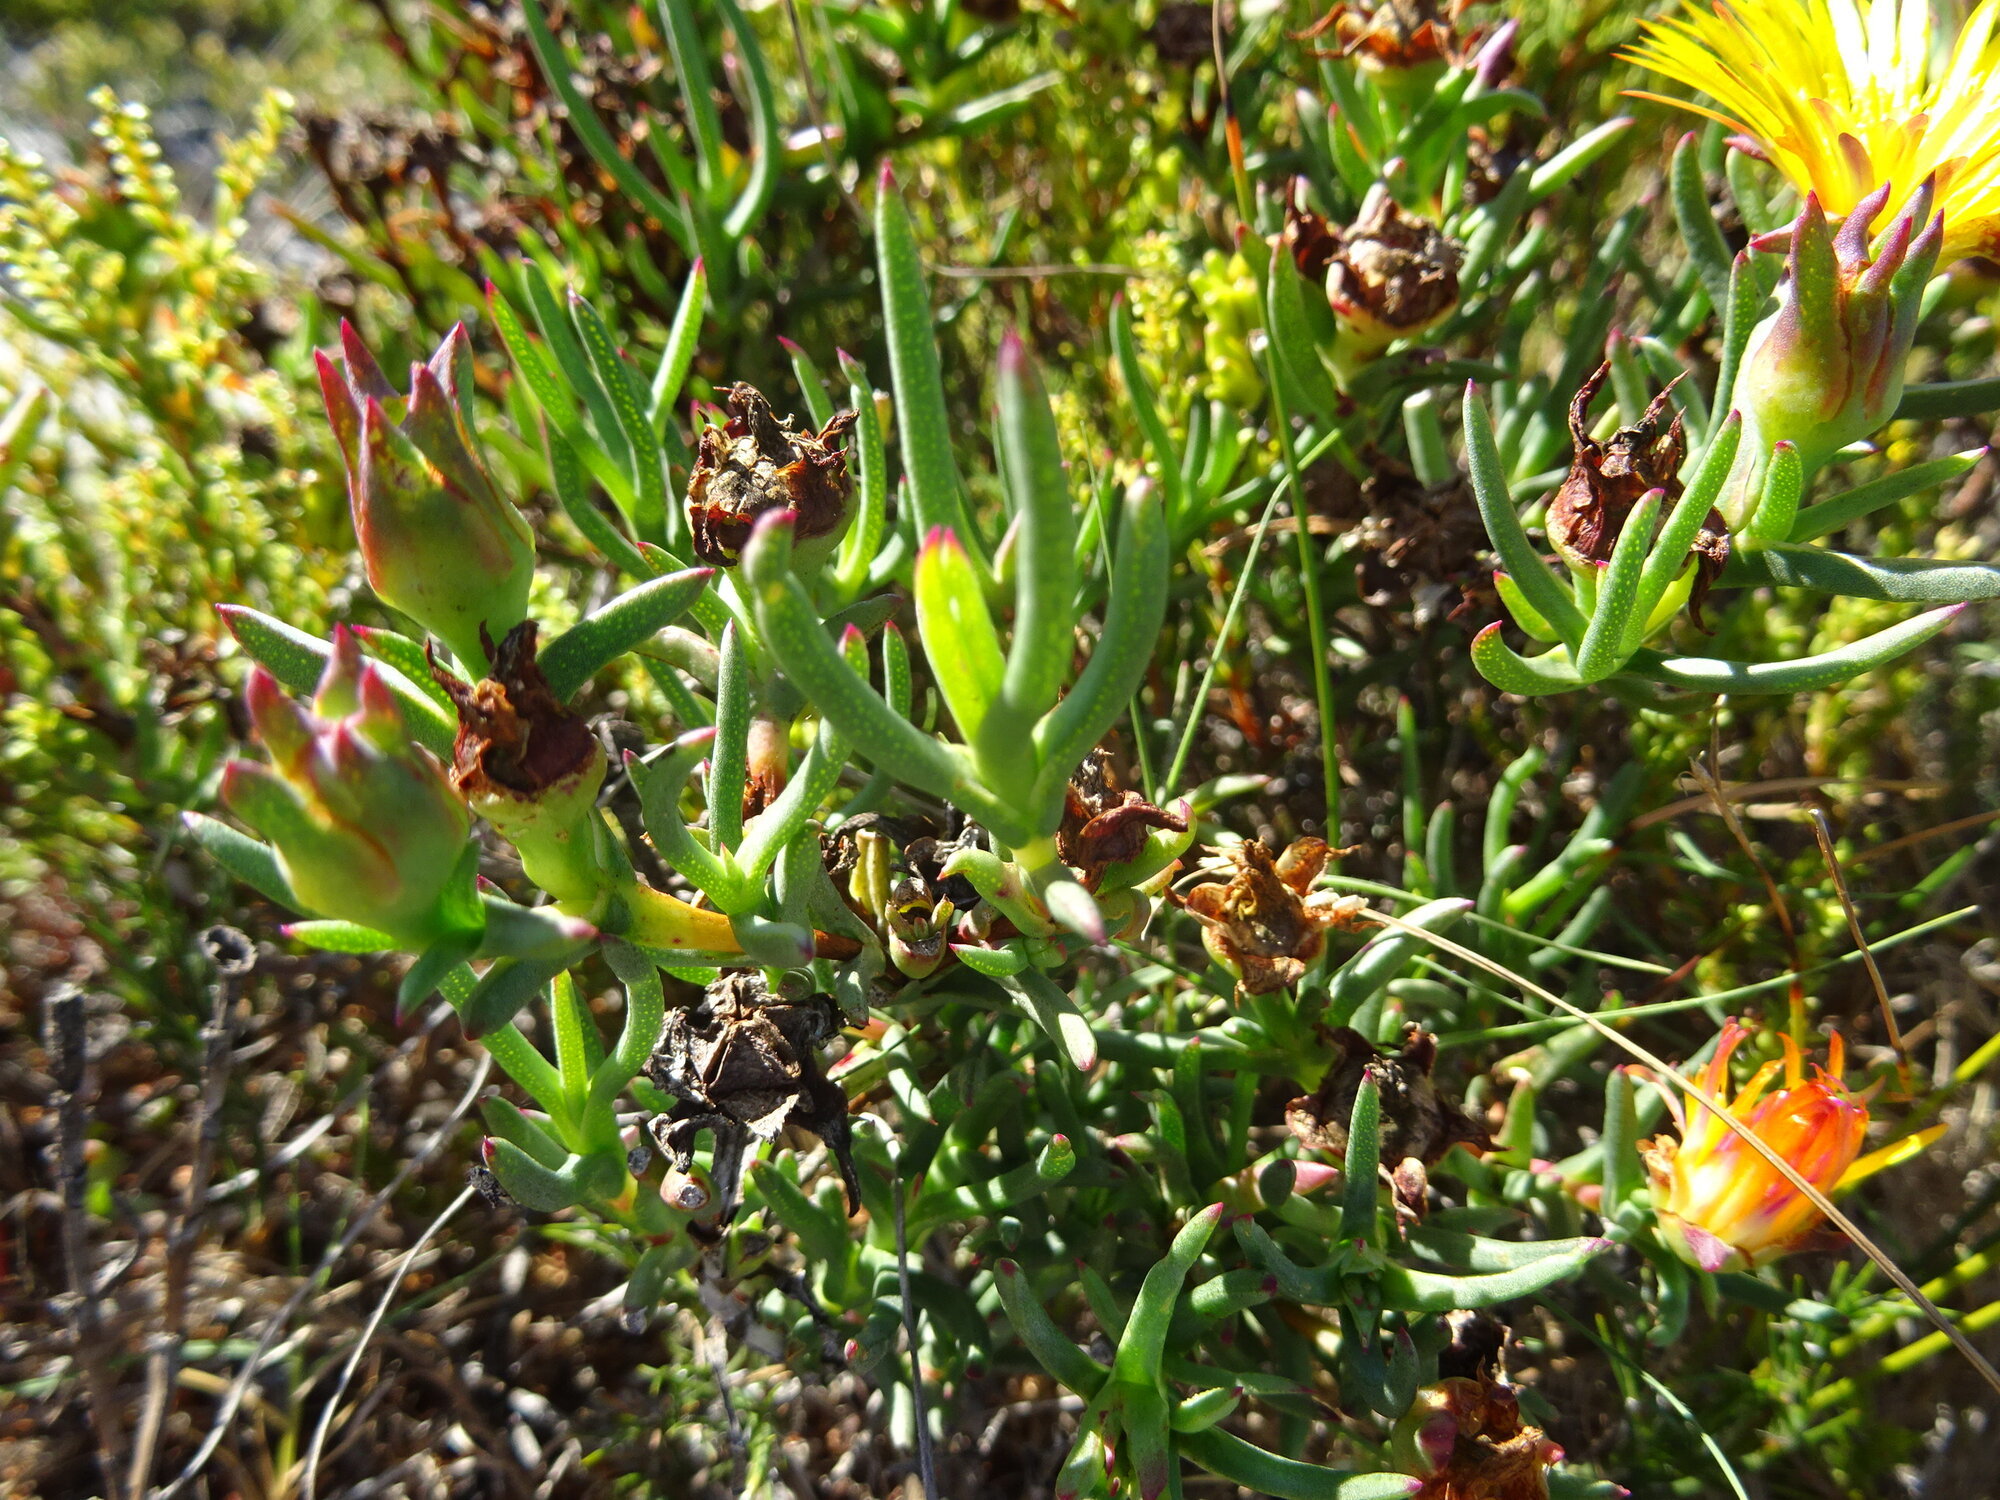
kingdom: Plantae
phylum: Tracheophyta
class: Magnoliopsida
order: Caryophyllales
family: Aizoaceae
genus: Lampranthus
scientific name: Lampranthus bicolor
